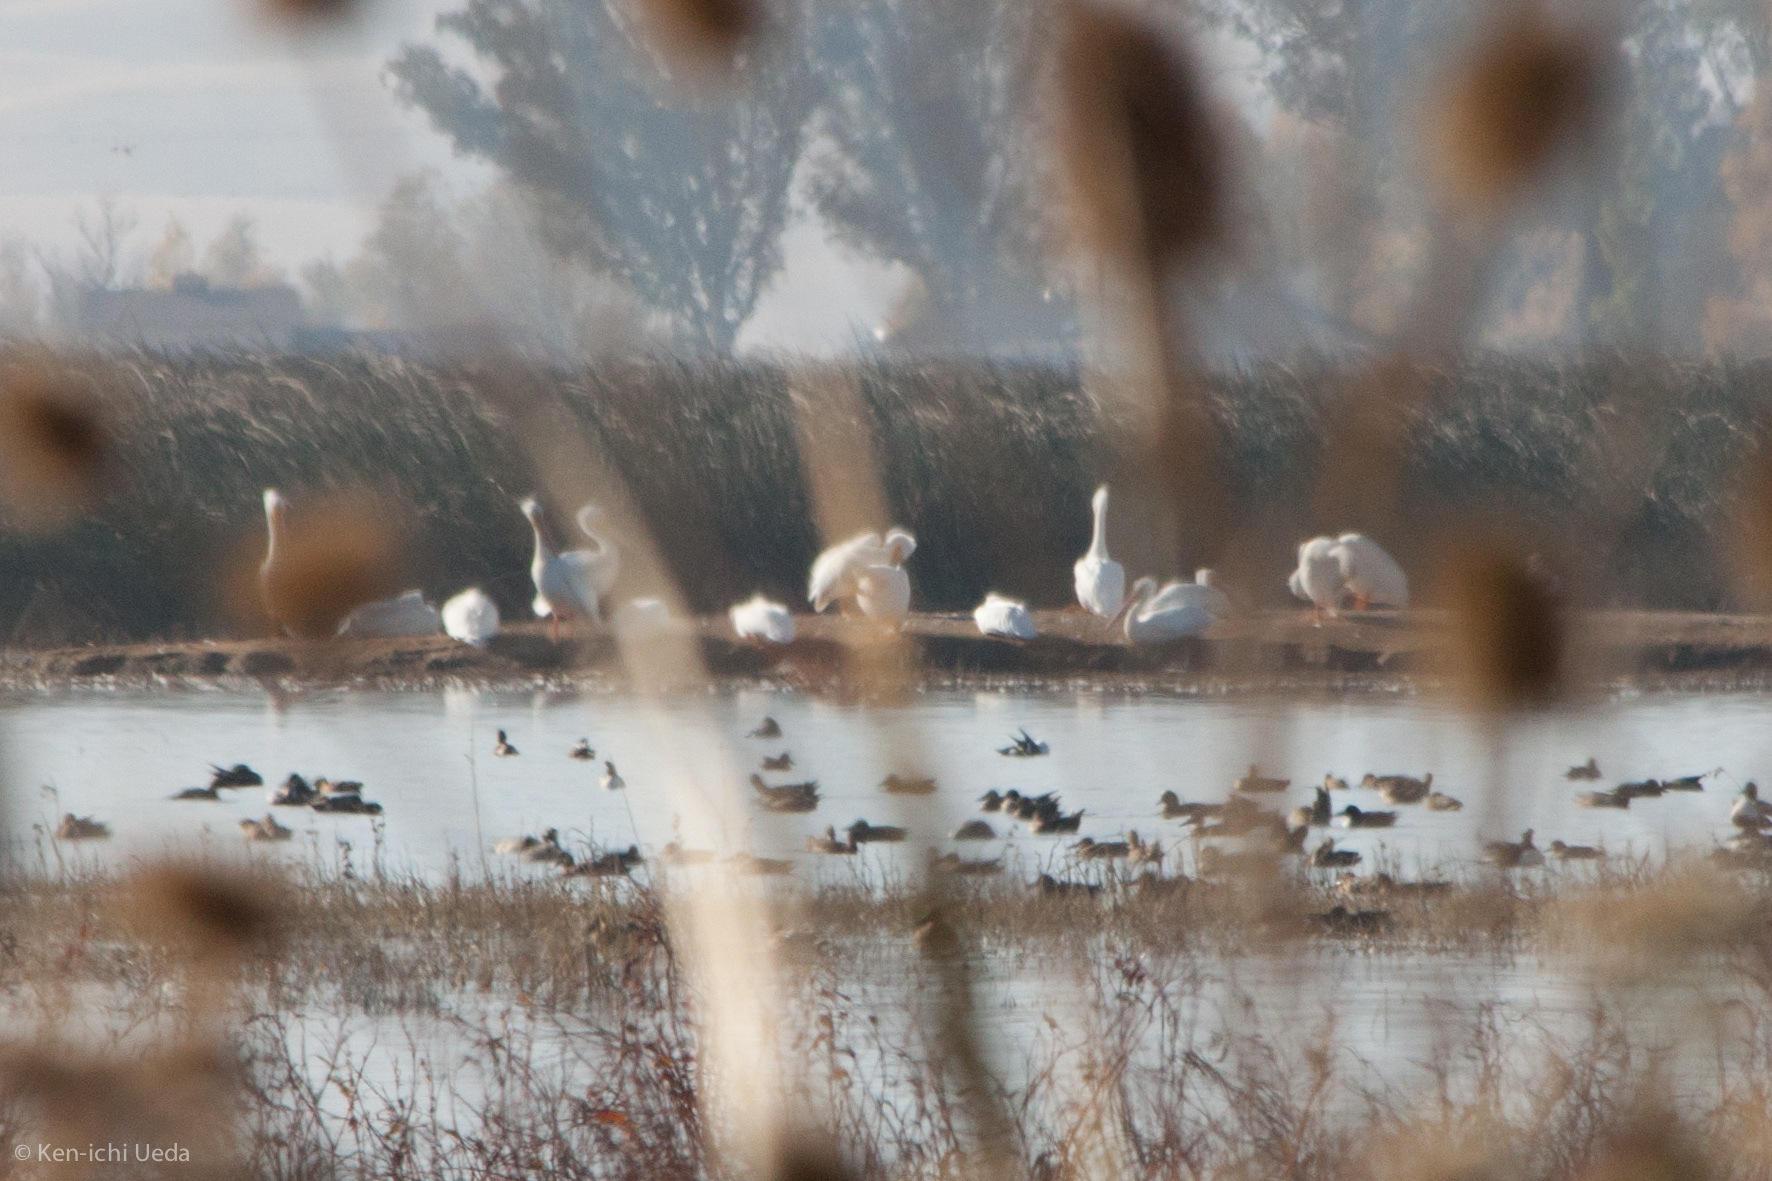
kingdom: Animalia
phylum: Chordata
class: Aves
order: Pelecaniformes
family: Pelecanidae
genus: Pelecanus
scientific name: Pelecanus erythrorhynchos
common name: American white pelican
